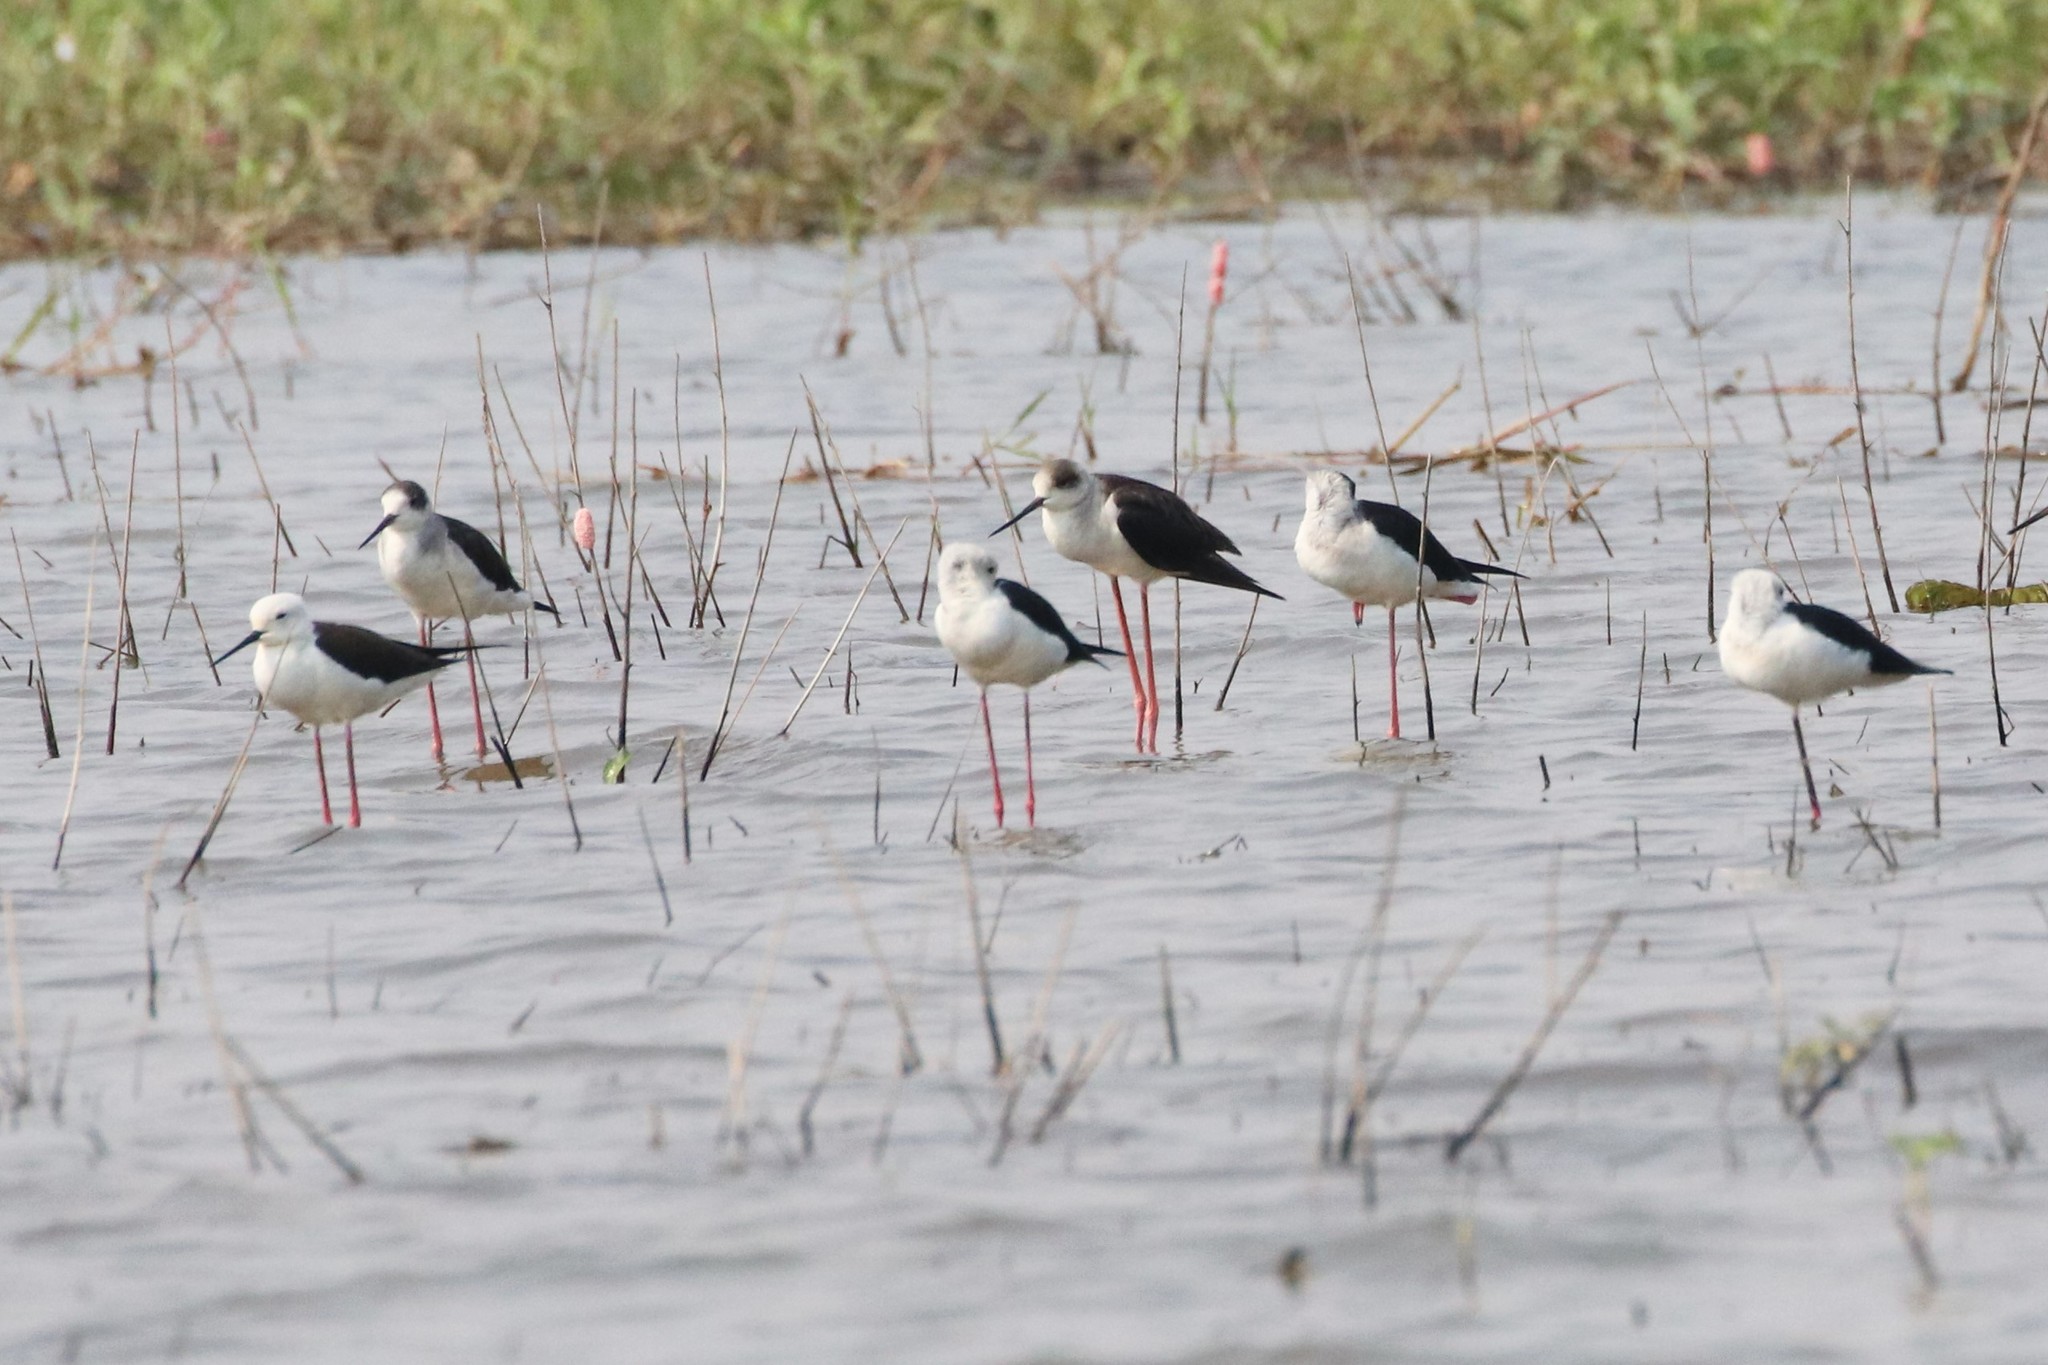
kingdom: Animalia
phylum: Chordata
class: Aves
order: Charadriiformes
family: Recurvirostridae
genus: Himantopus
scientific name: Himantopus himantopus
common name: Black-winged stilt
